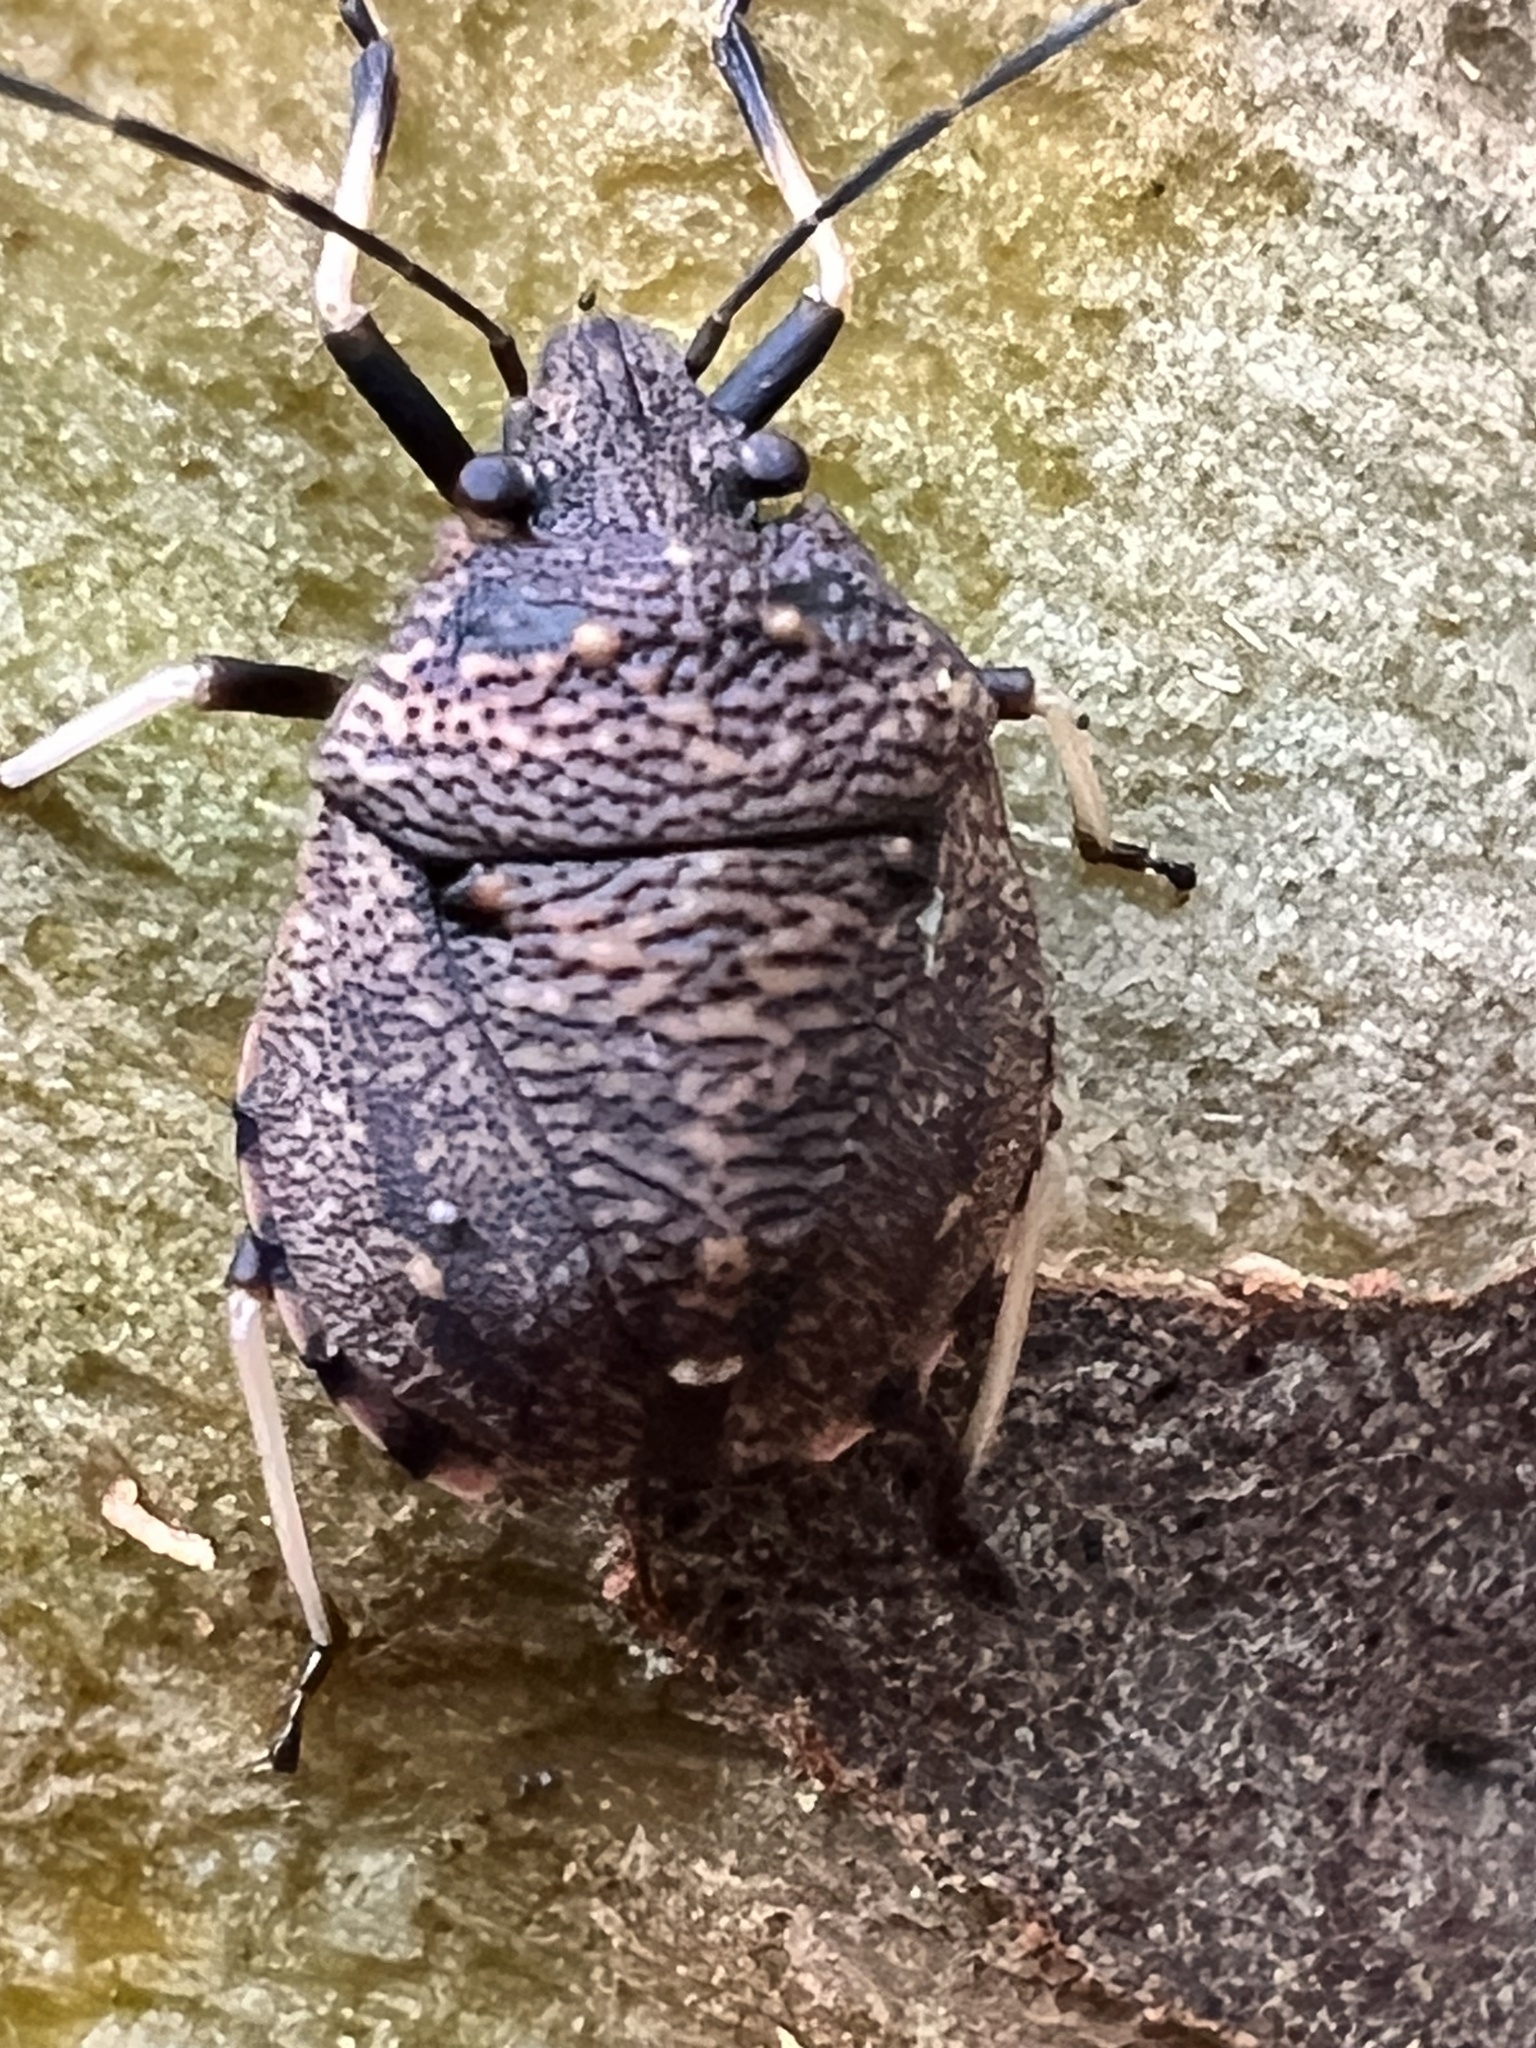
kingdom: Animalia
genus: Platycoris
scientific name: Platycoris bipunctata
